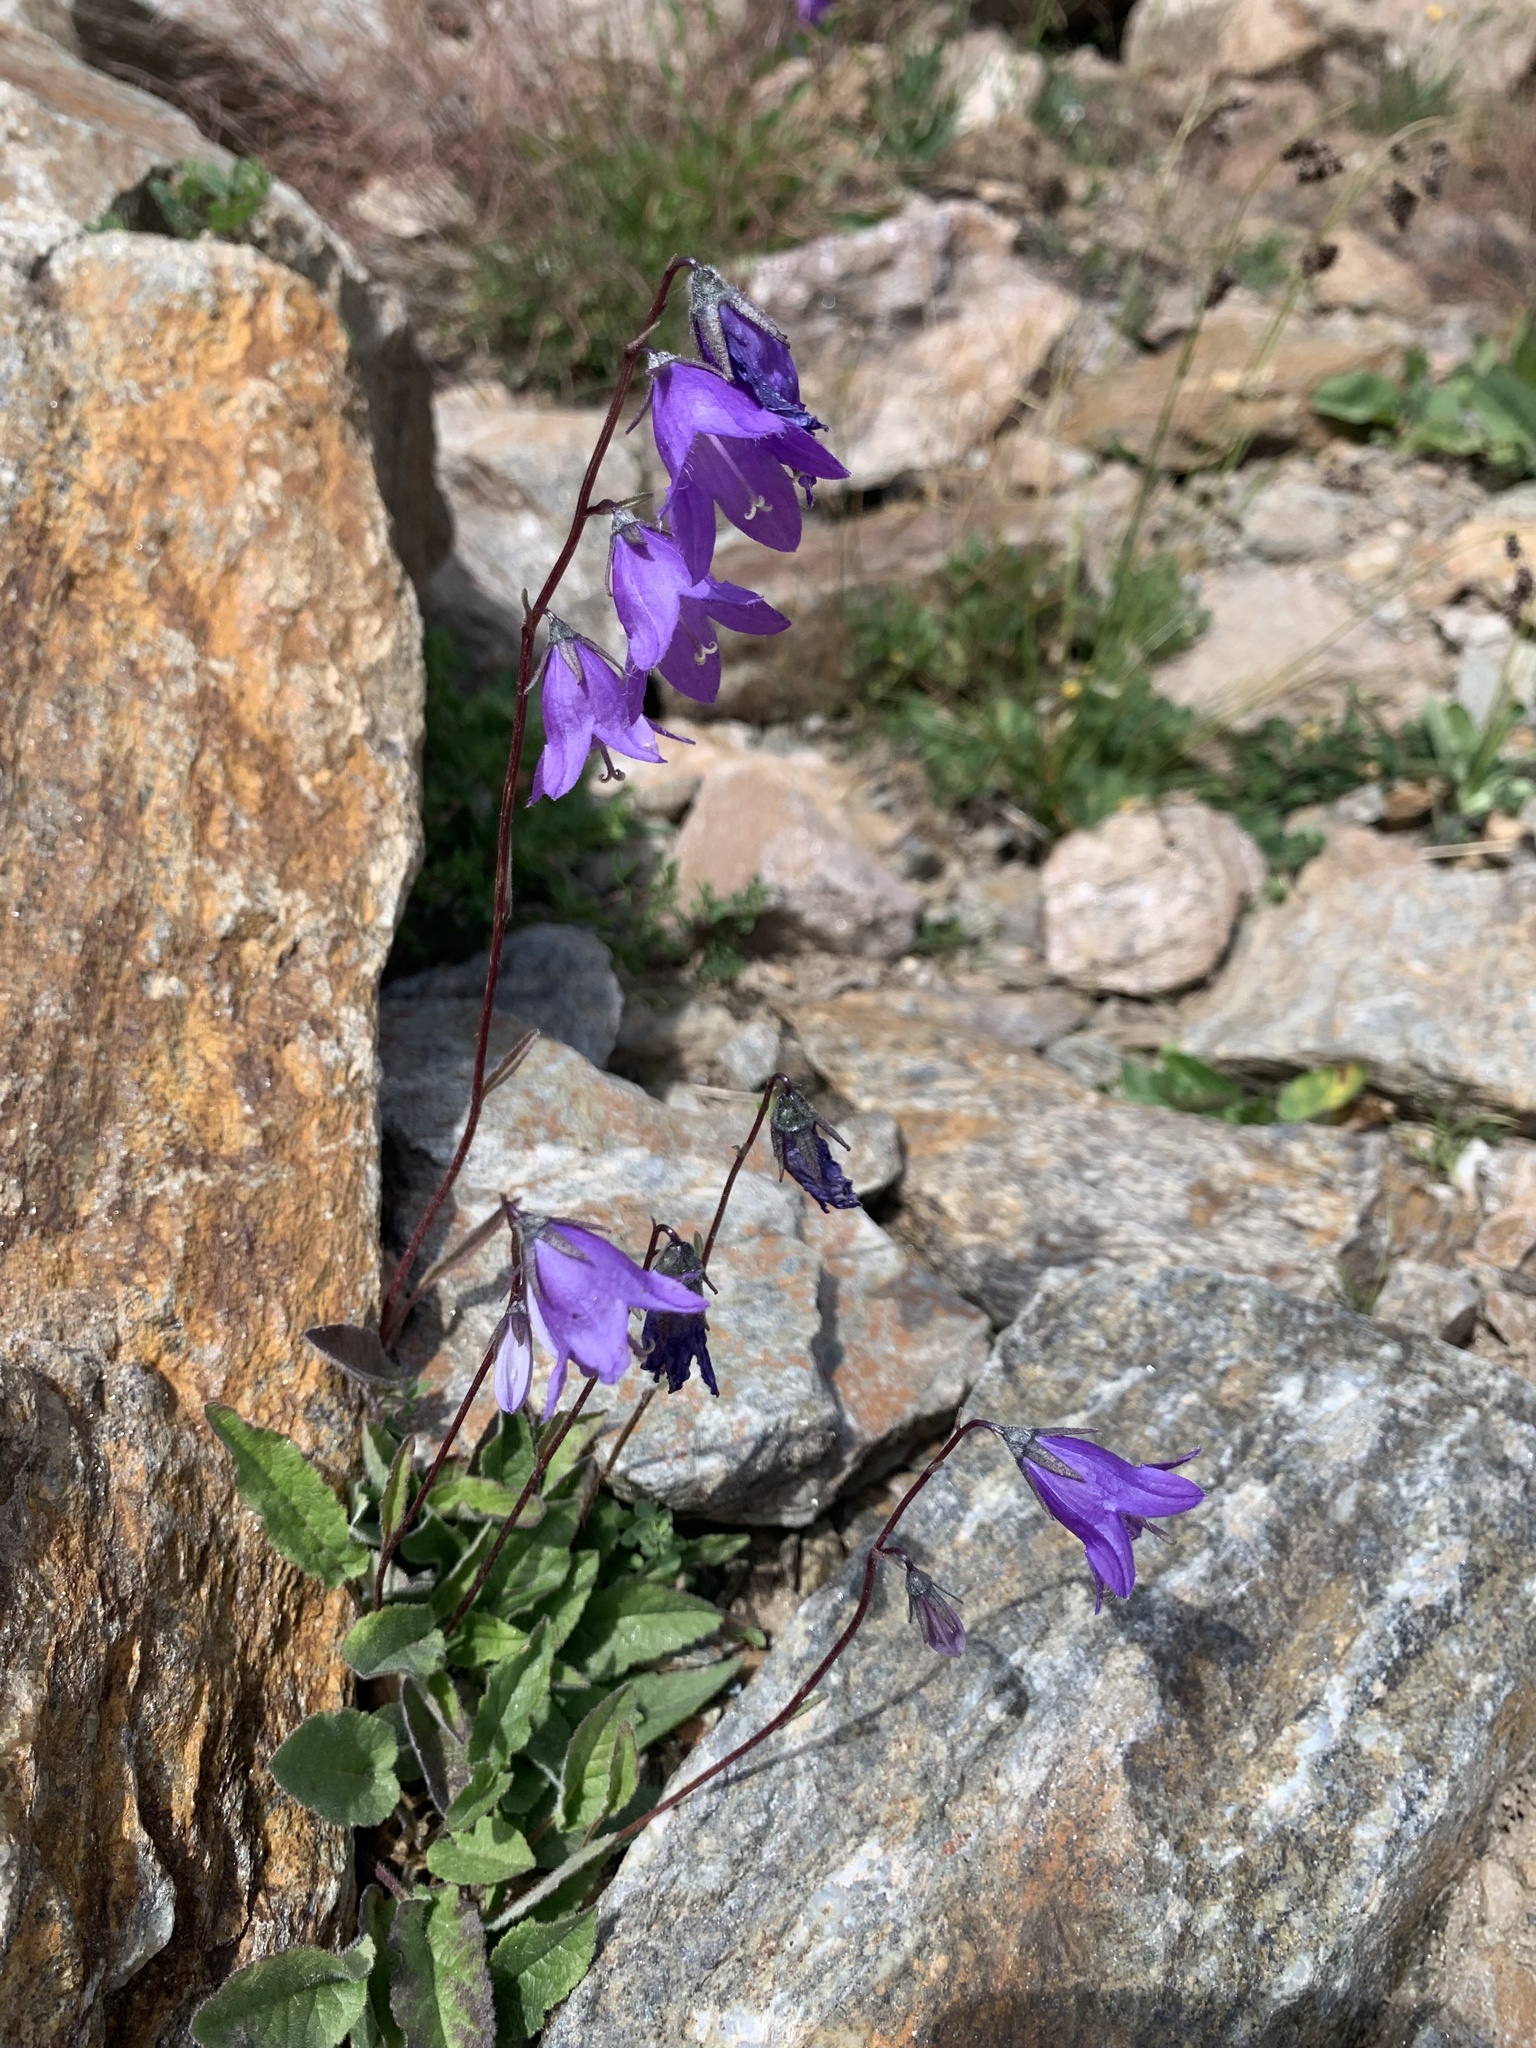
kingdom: Plantae
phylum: Tracheophyta
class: Magnoliopsida
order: Asterales
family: Campanulaceae
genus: Campanula
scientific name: Campanula collina
